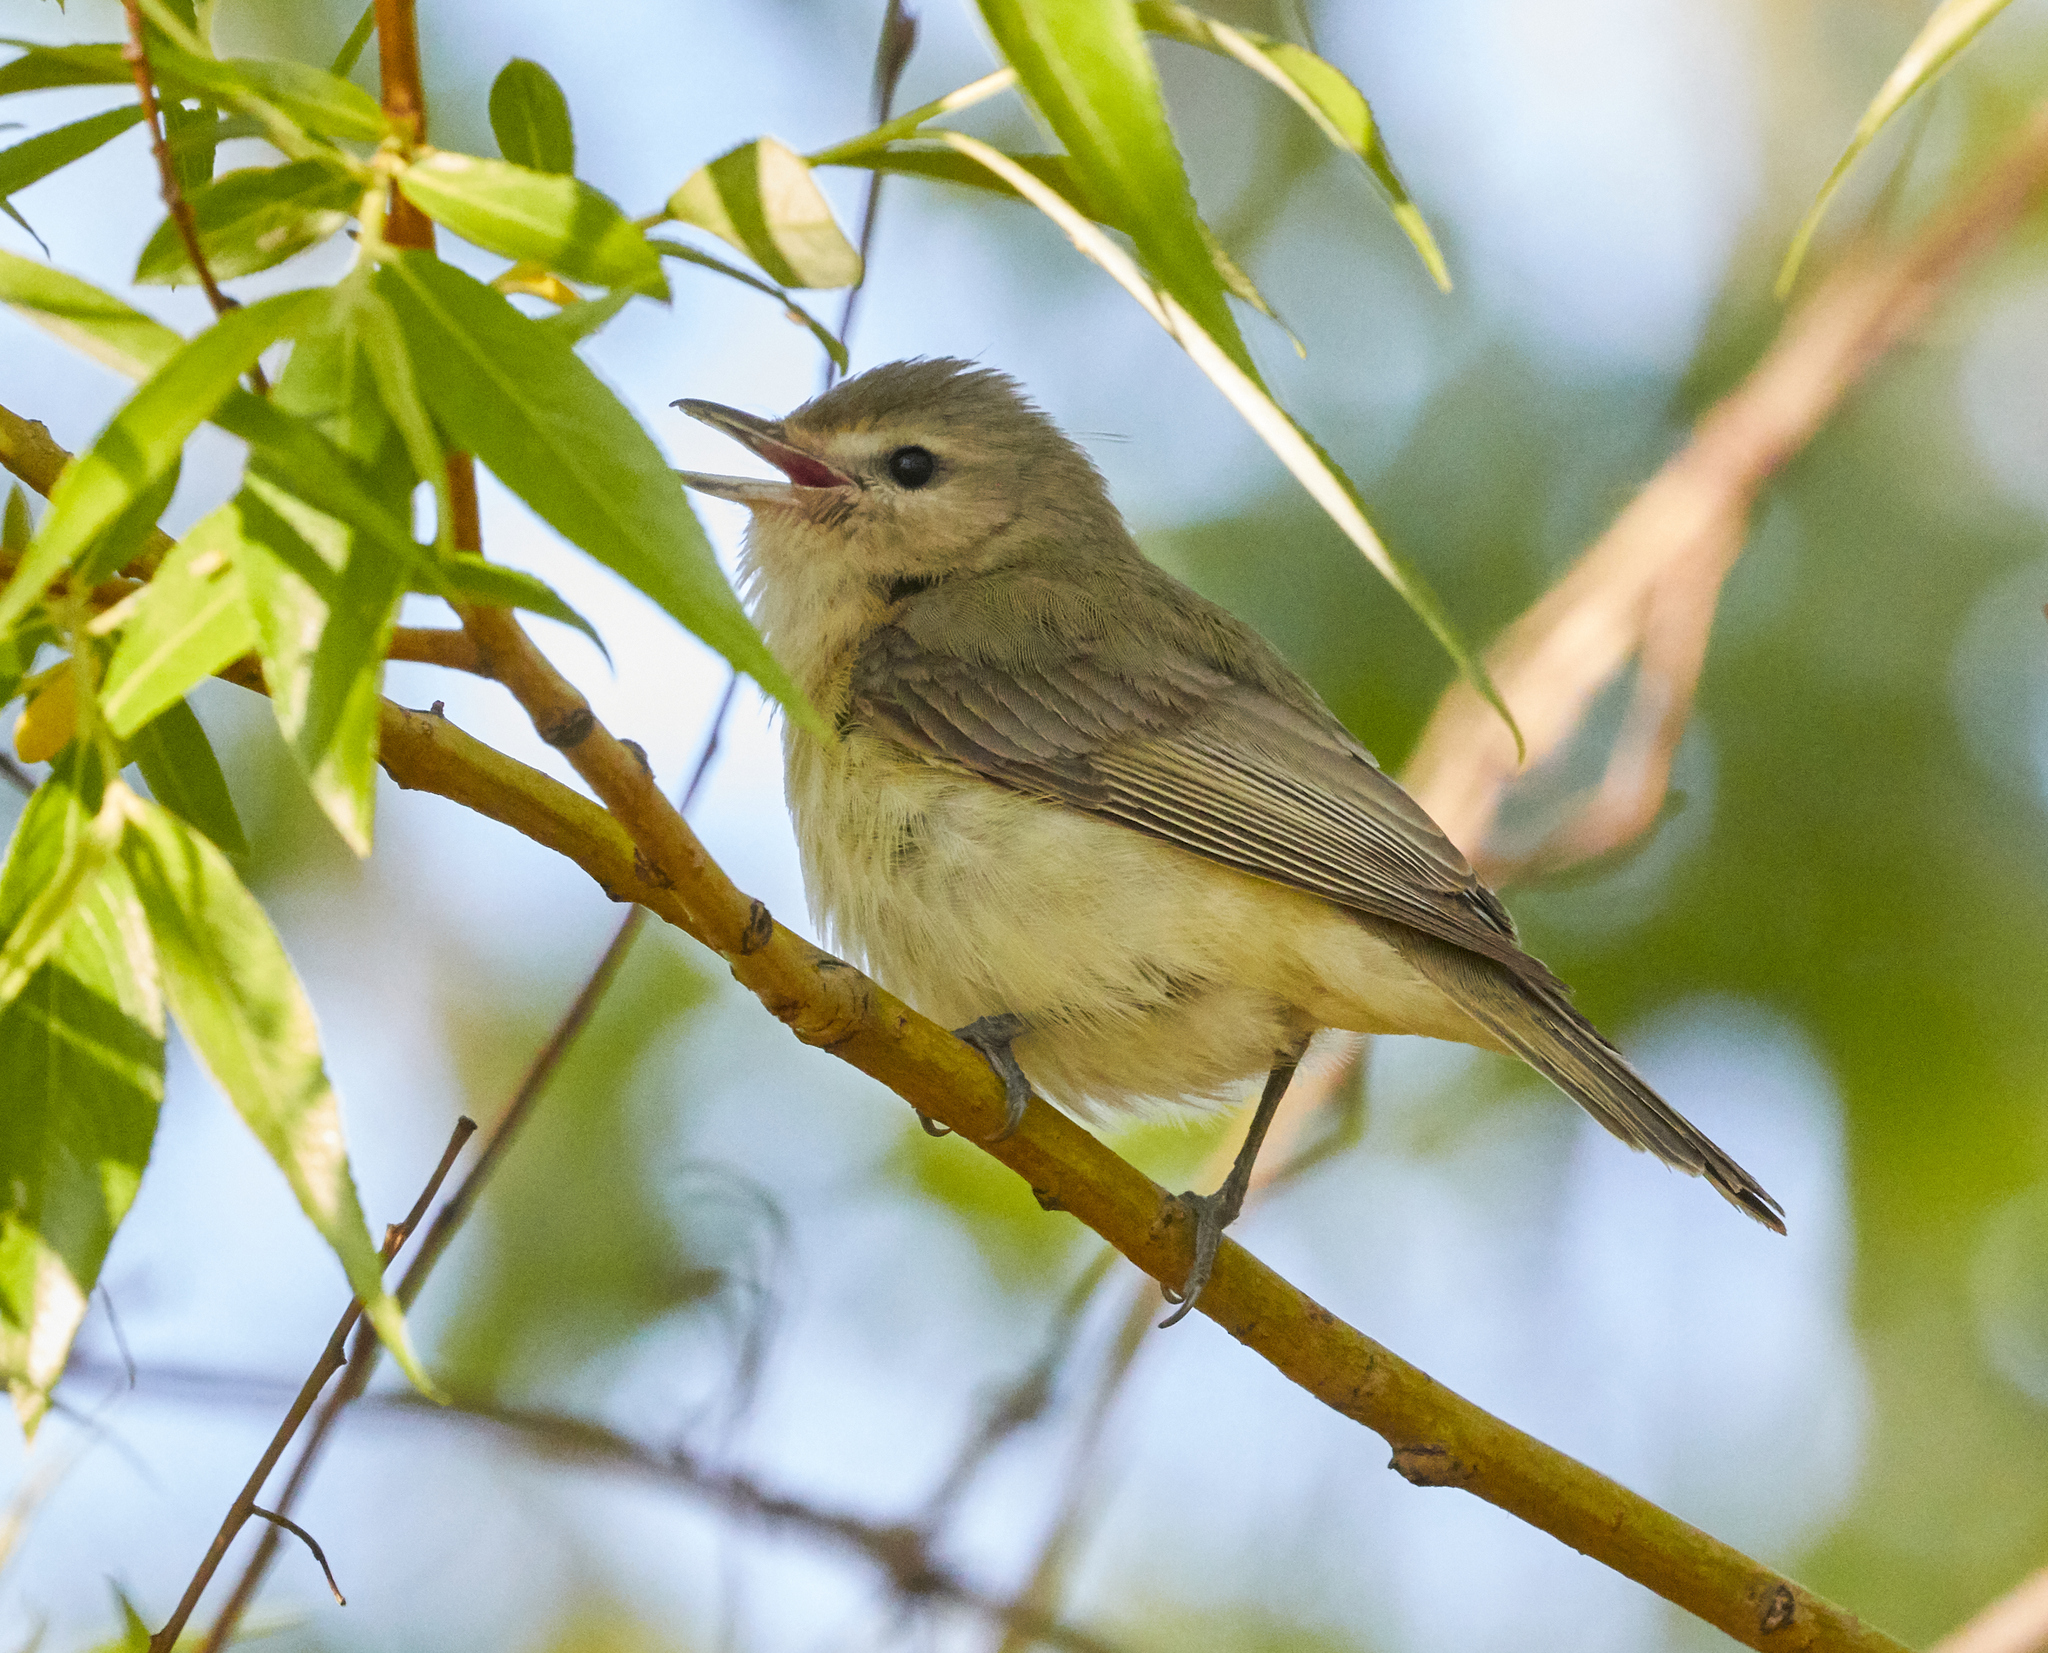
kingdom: Animalia
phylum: Chordata
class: Aves
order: Passeriformes
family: Vireonidae
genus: Vireo
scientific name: Vireo gilvus
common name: Warbling vireo
